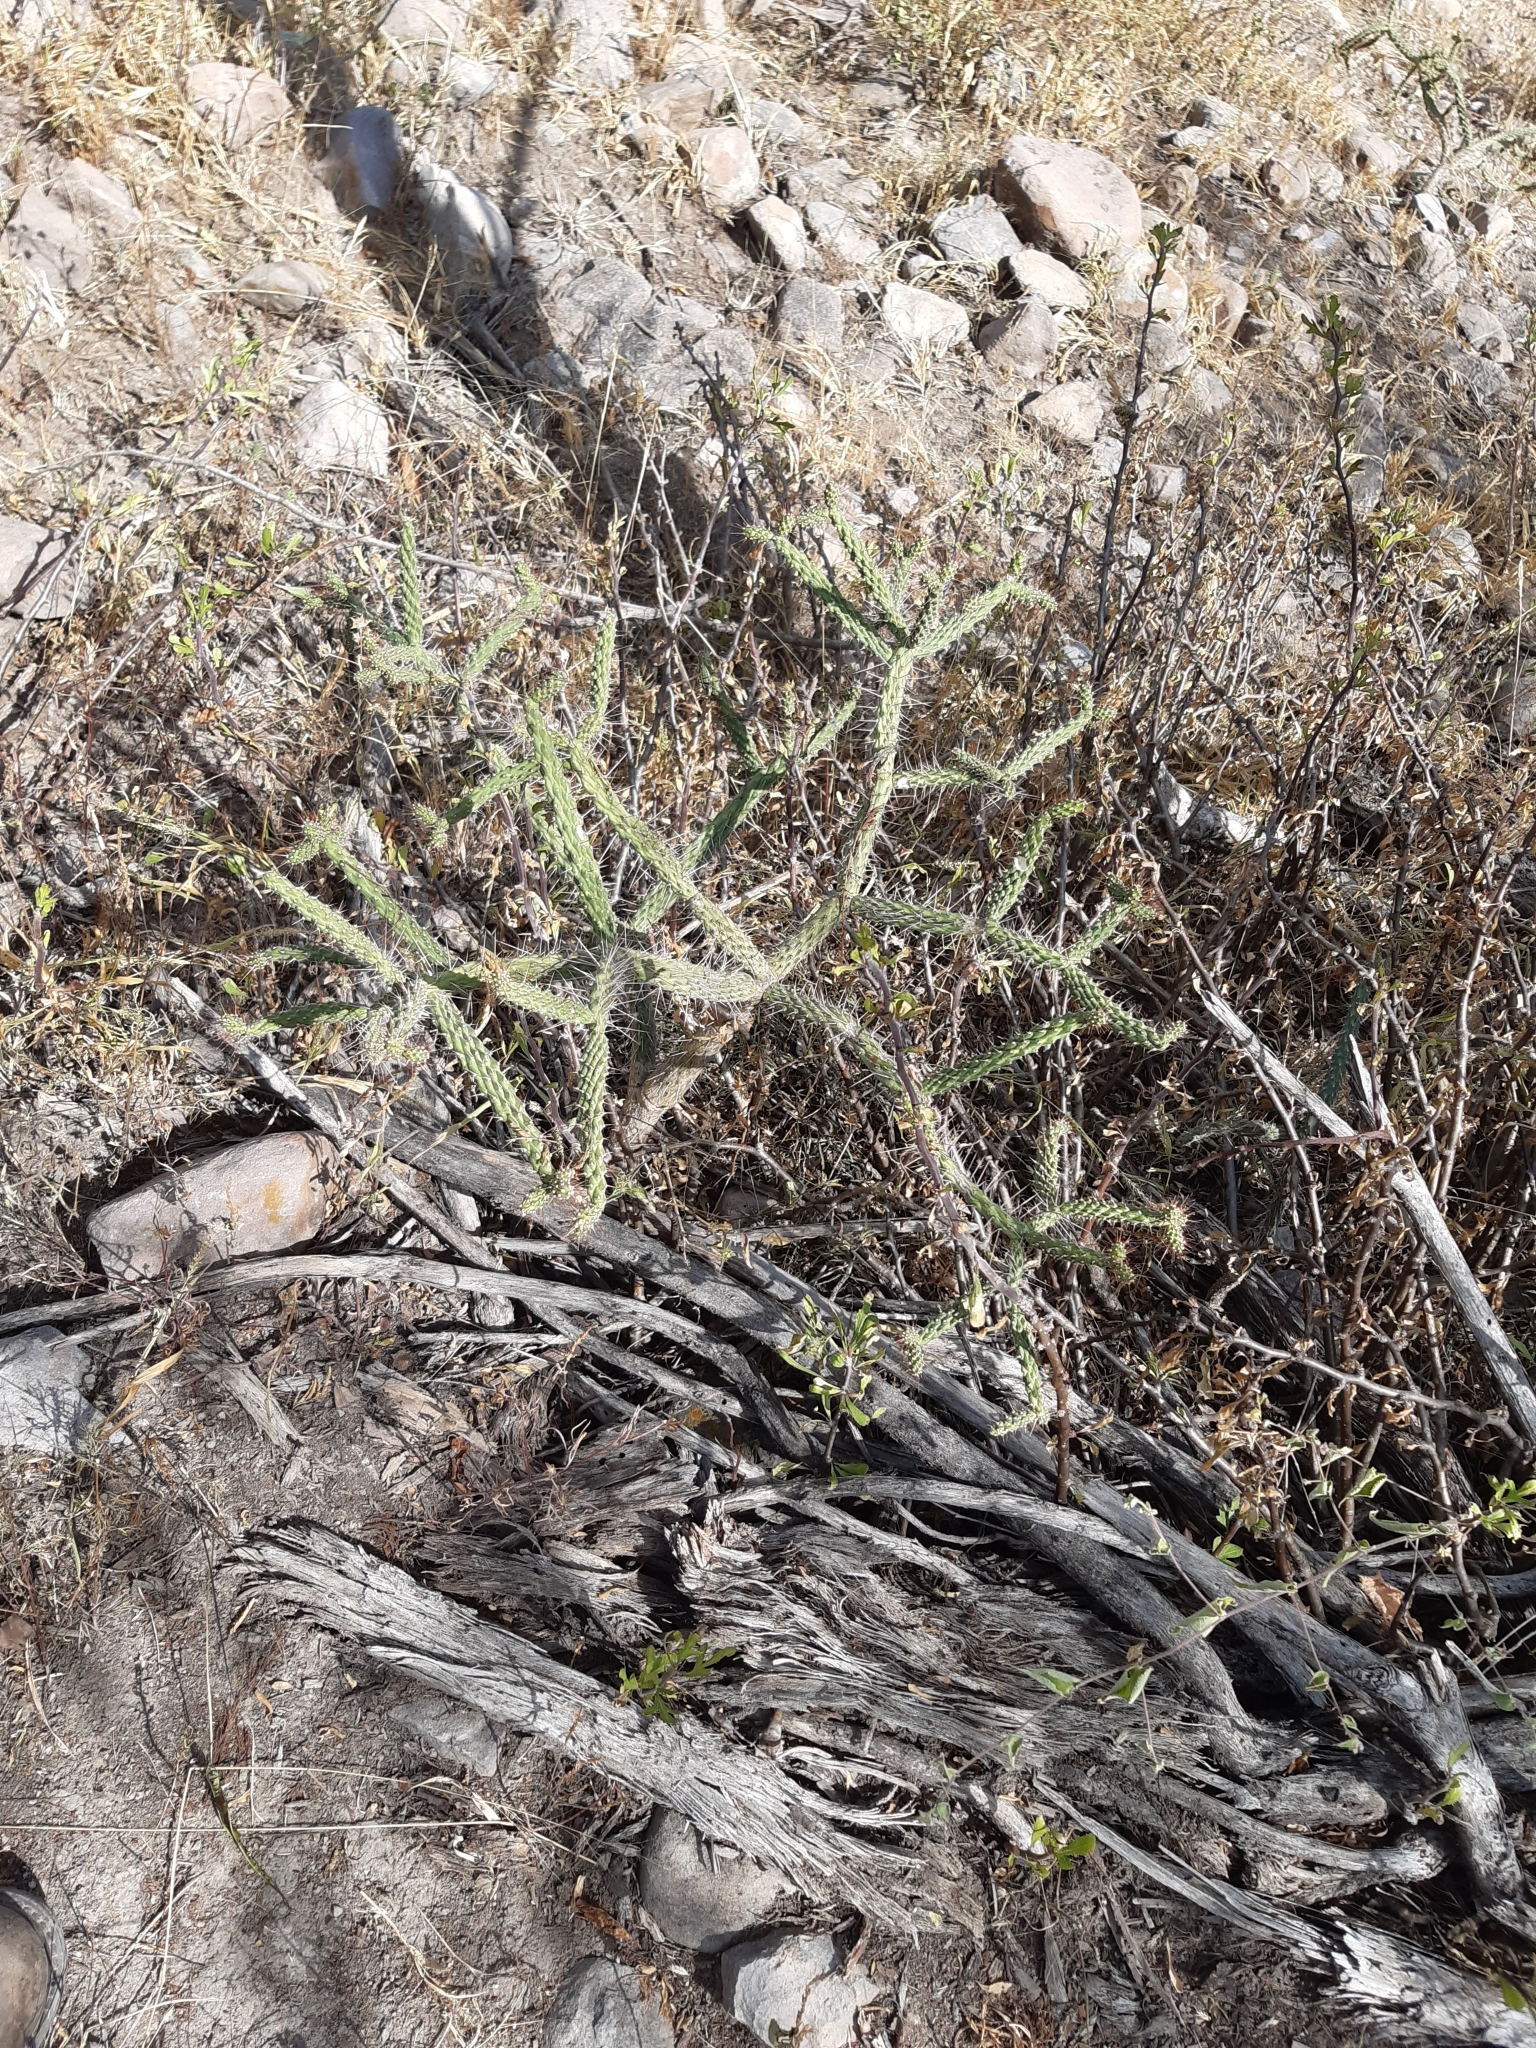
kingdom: Plantae
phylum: Tracheophyta
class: Magnoliopsida
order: Caryophyllales
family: Cactaceae
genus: Opuntia
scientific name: Opuntia pubescens
